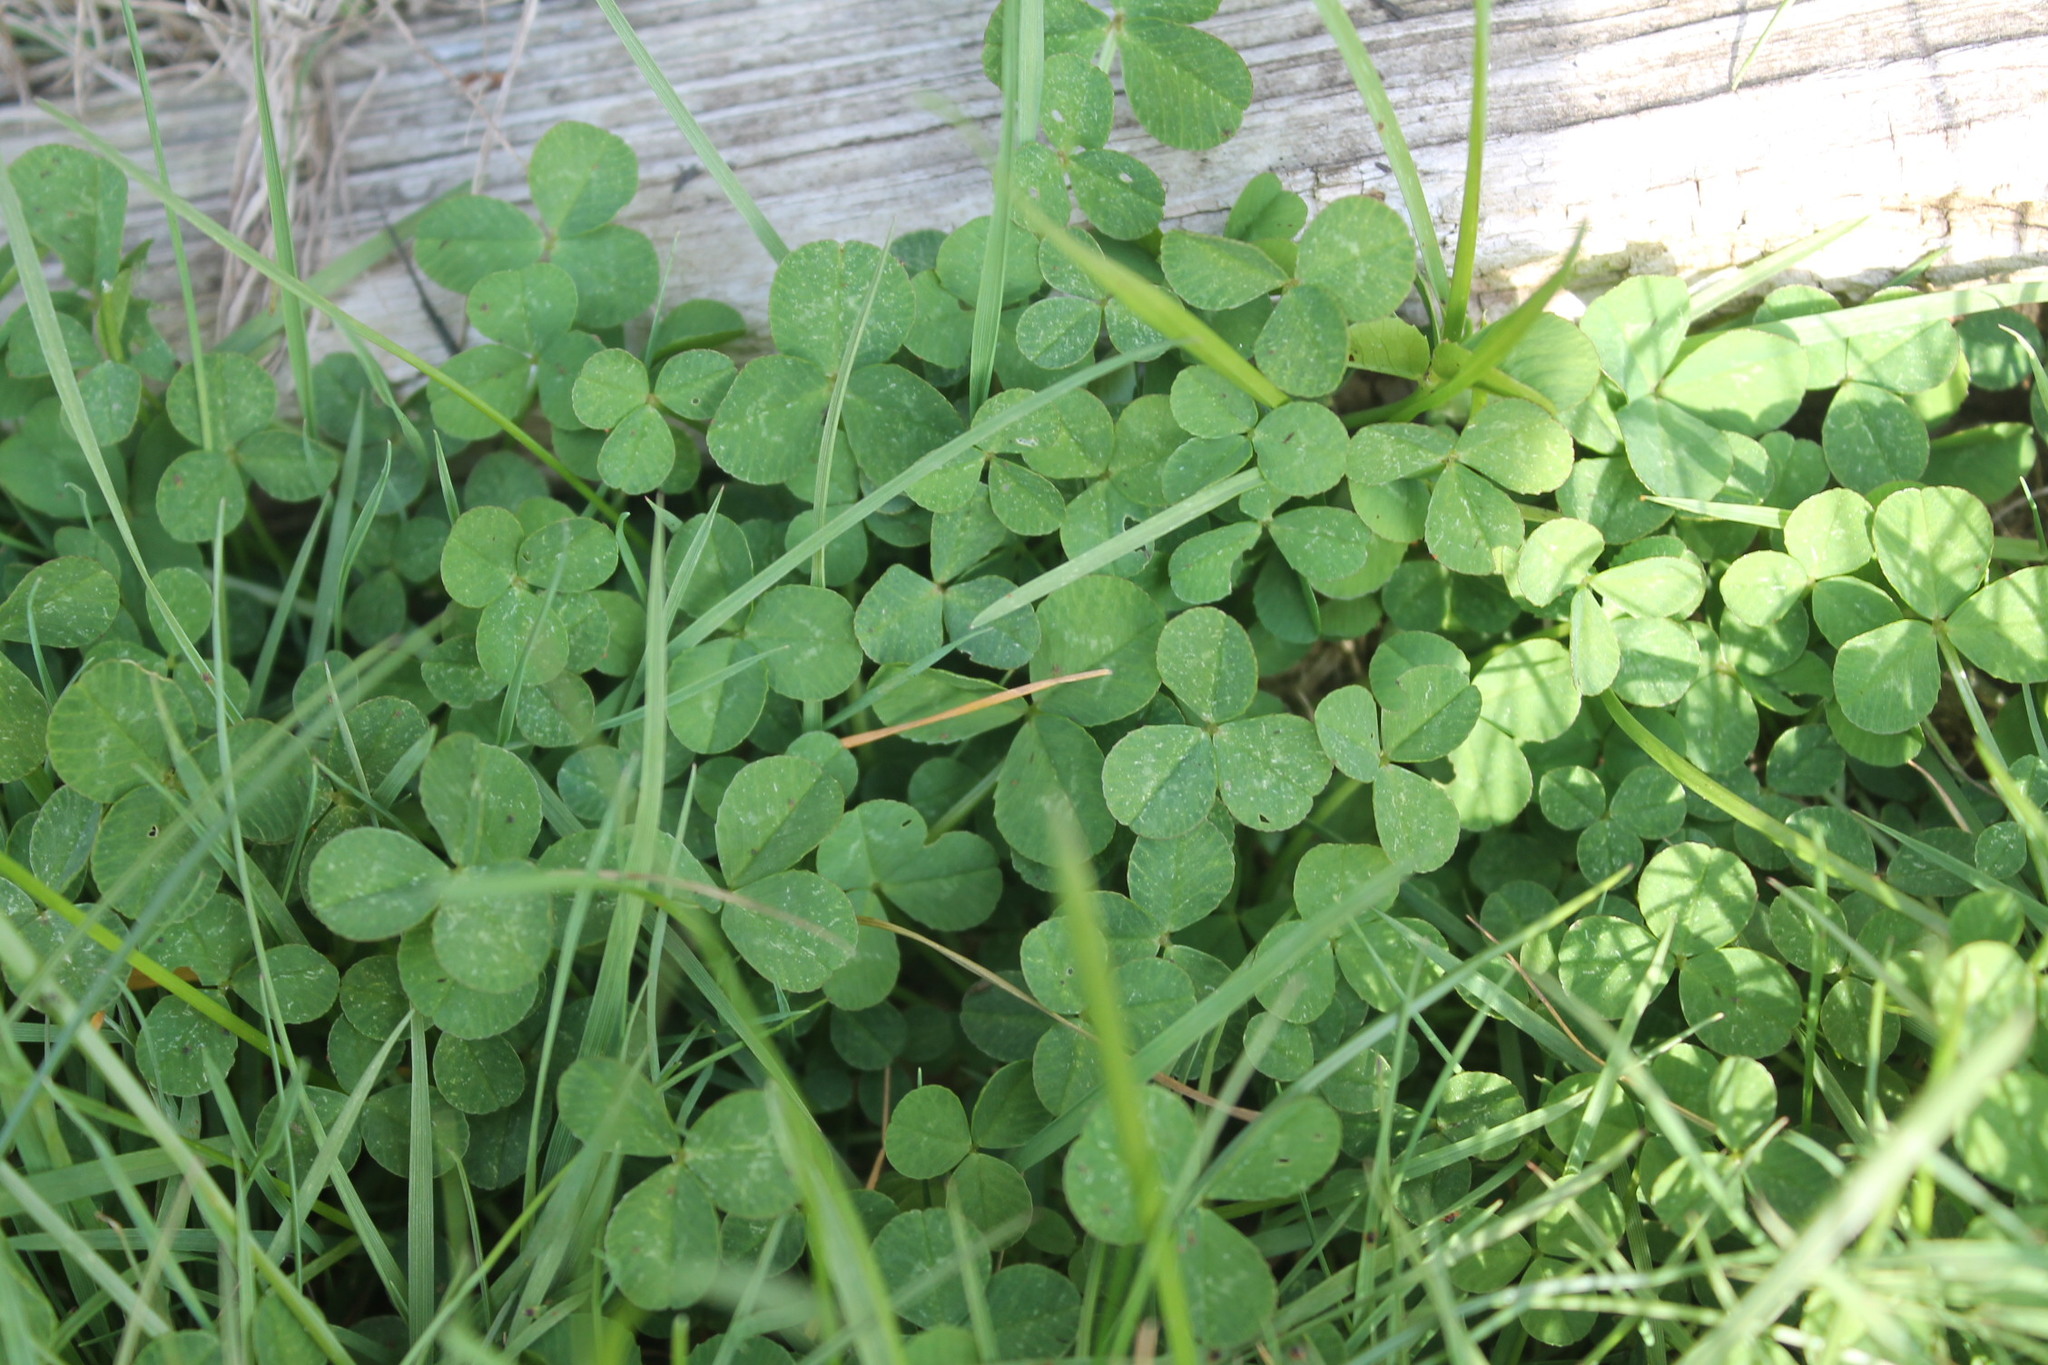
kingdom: Plantae
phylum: Tracheophyta
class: Magnoliopsida
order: Fabales
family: Fabaceae
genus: Trifolium
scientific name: Trifolium repens
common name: White clover
